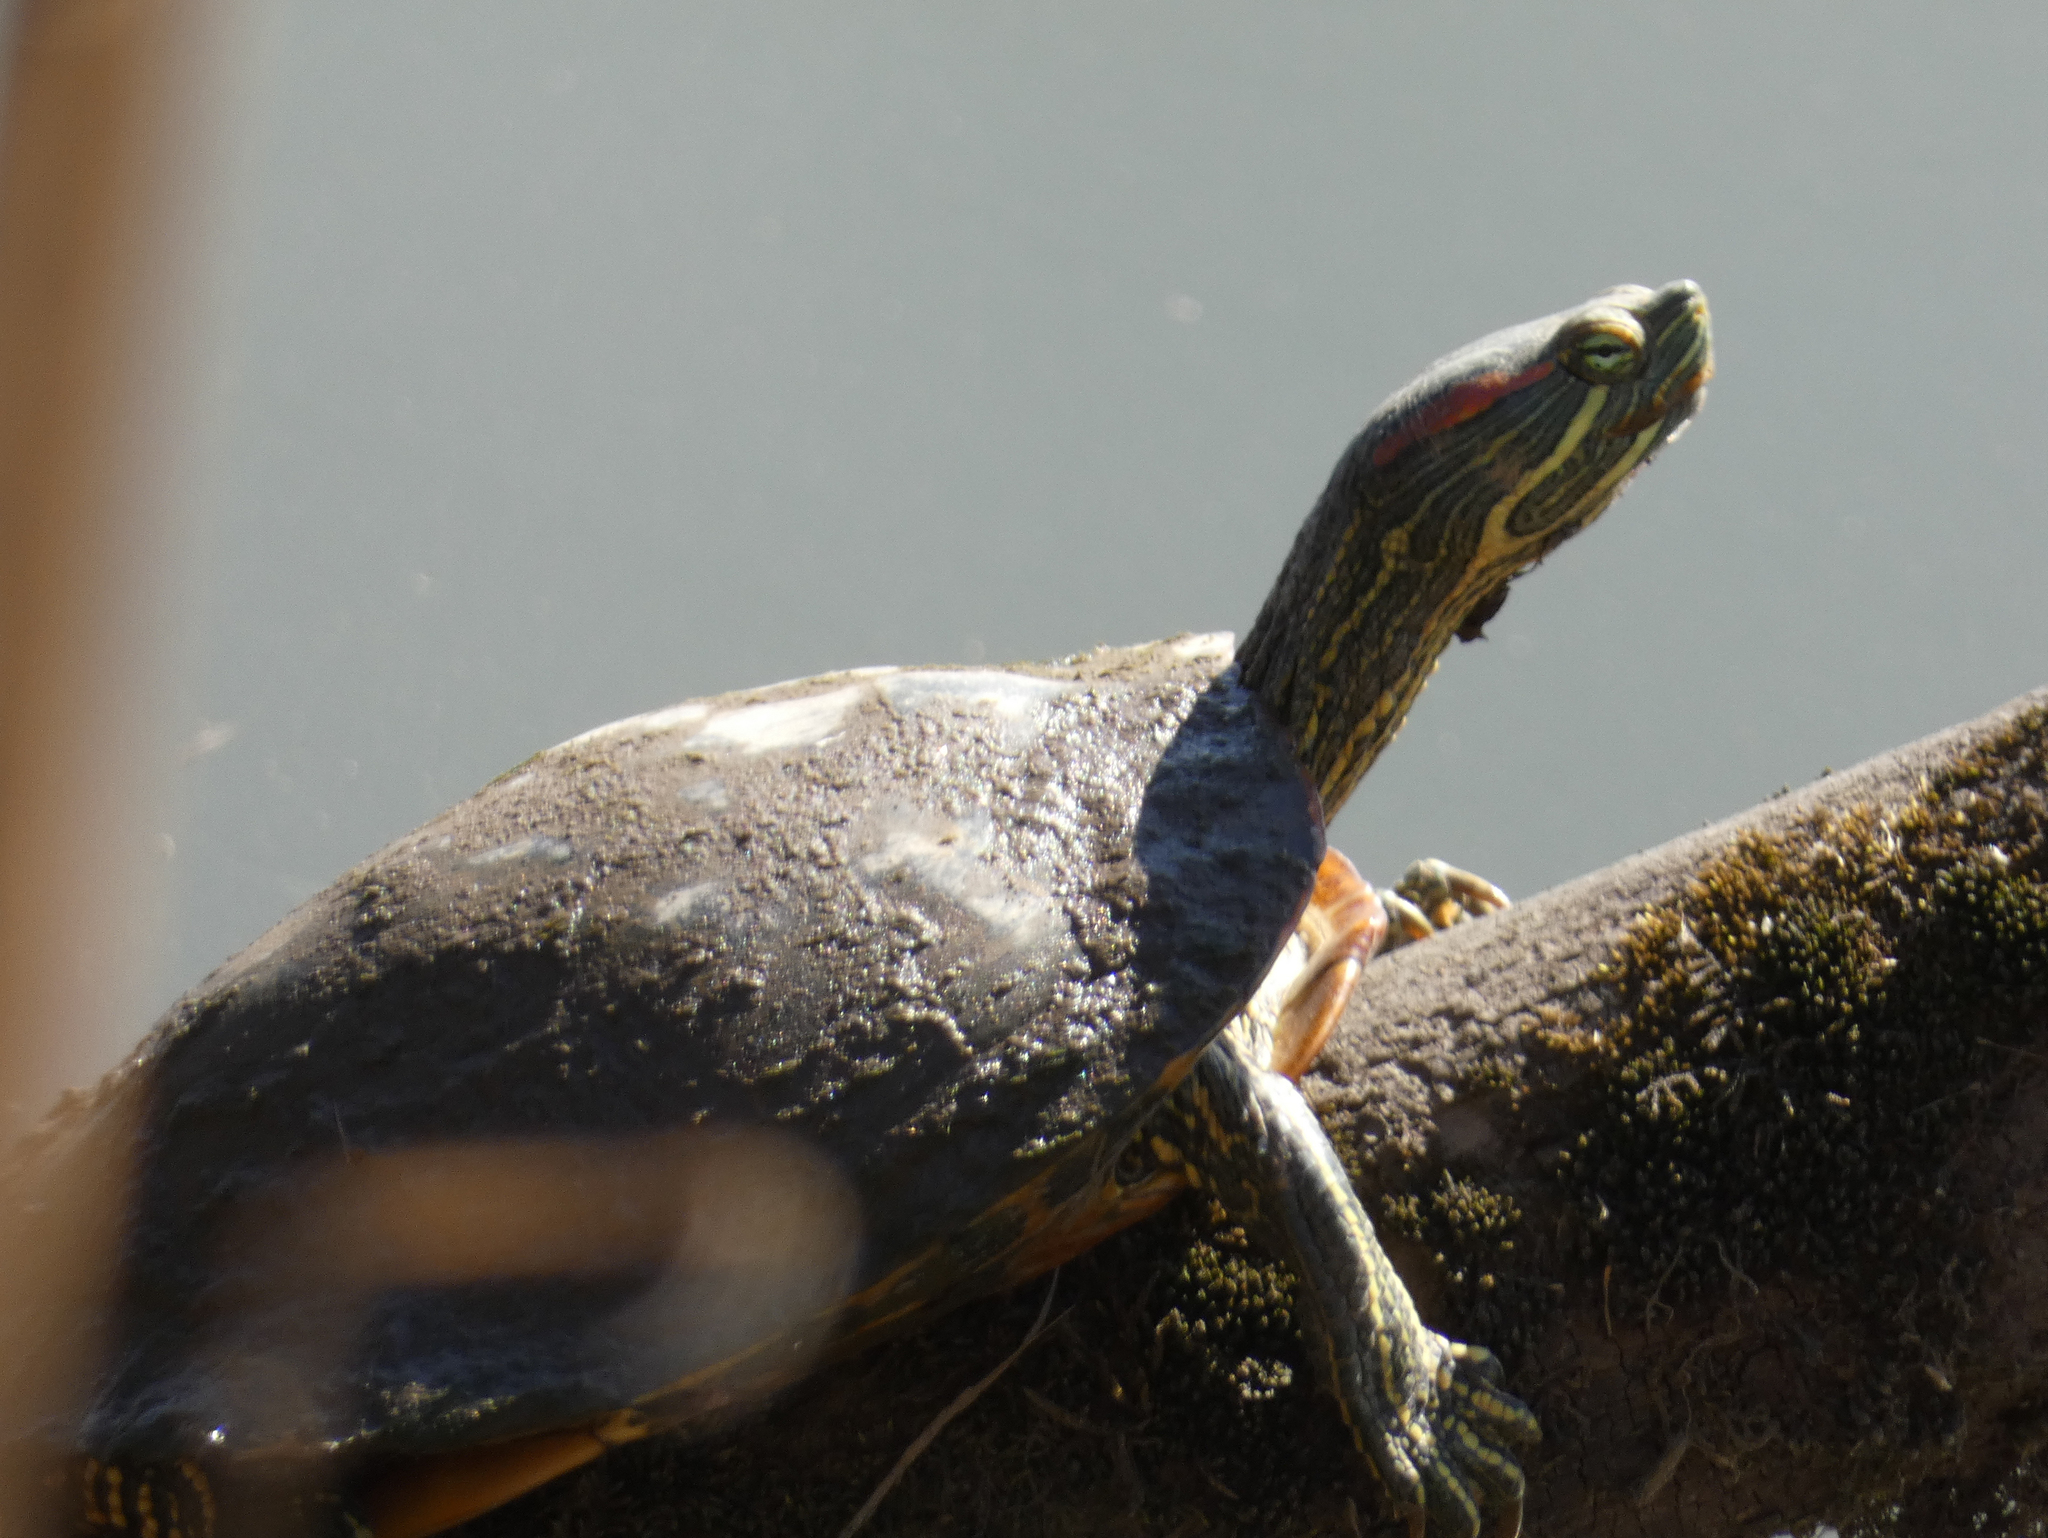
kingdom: Animalia
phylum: Chordata
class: Testudines
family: Emydidae
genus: Trachemys
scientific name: Trachemys scripta
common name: Slider
